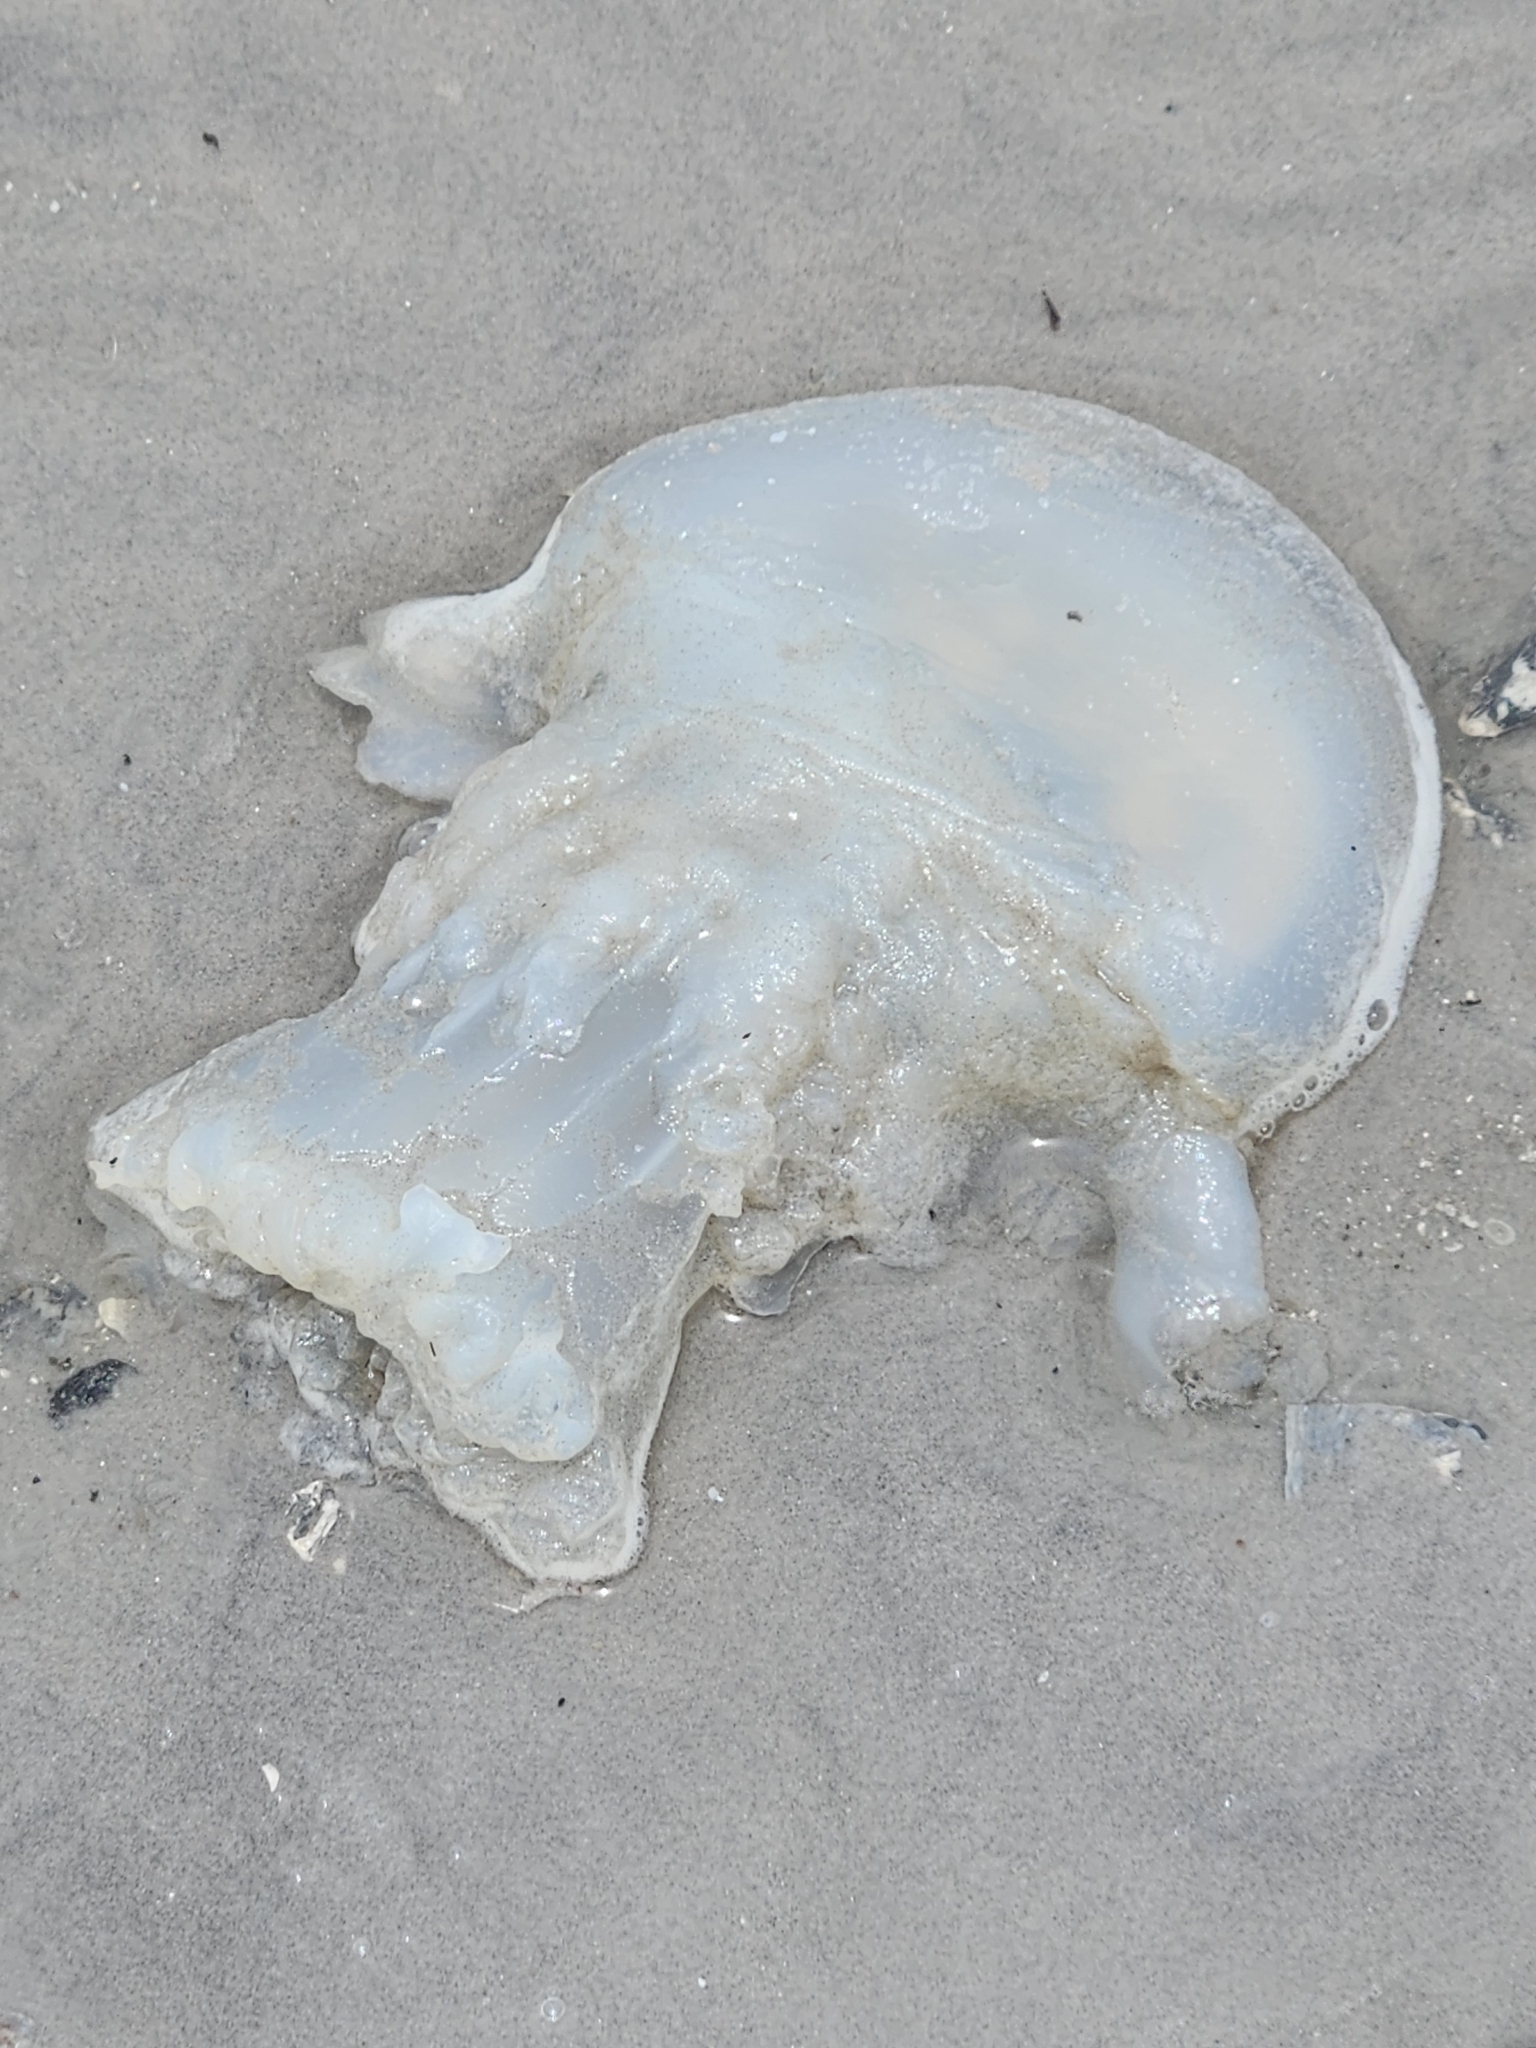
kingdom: Animalia
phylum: Cnidaria
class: Scyphozoa
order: Rhizostomeae
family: Stomolophidae
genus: Stomolophus
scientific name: Stomolophus meleagris
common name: Cabbagehead
